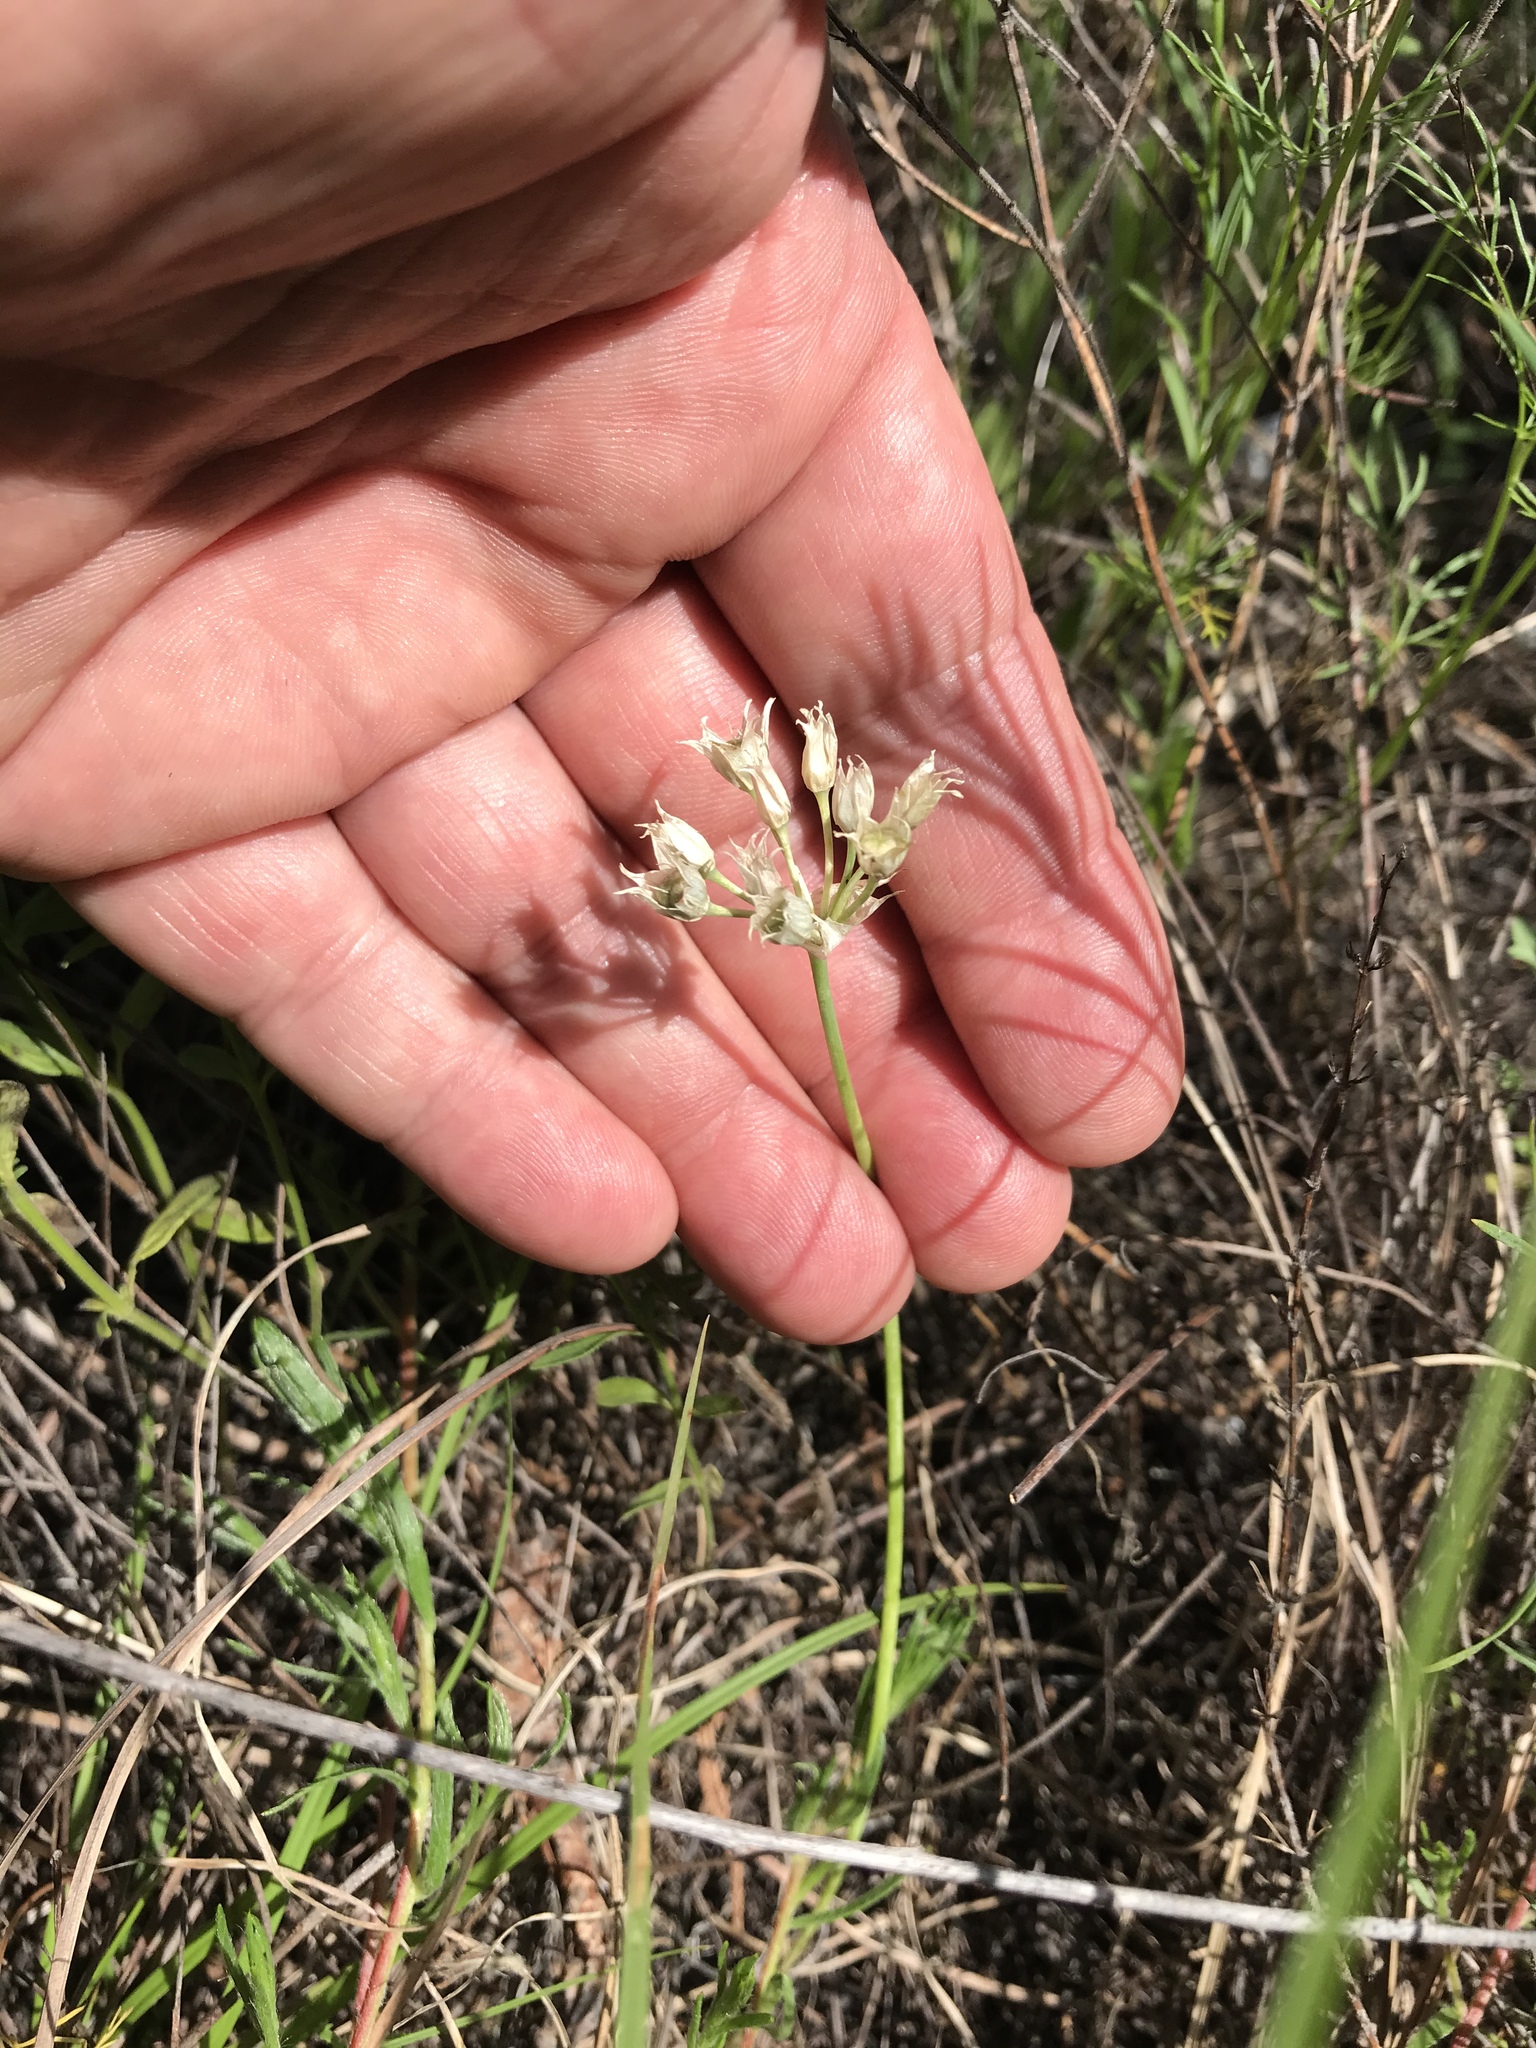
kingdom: Plantae
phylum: Tracheophyta
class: Liliopsida
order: Asparagales
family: Amaryllidaceae
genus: Nothoscordum
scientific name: Nothoscordum bivalve
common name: Crow-poison
